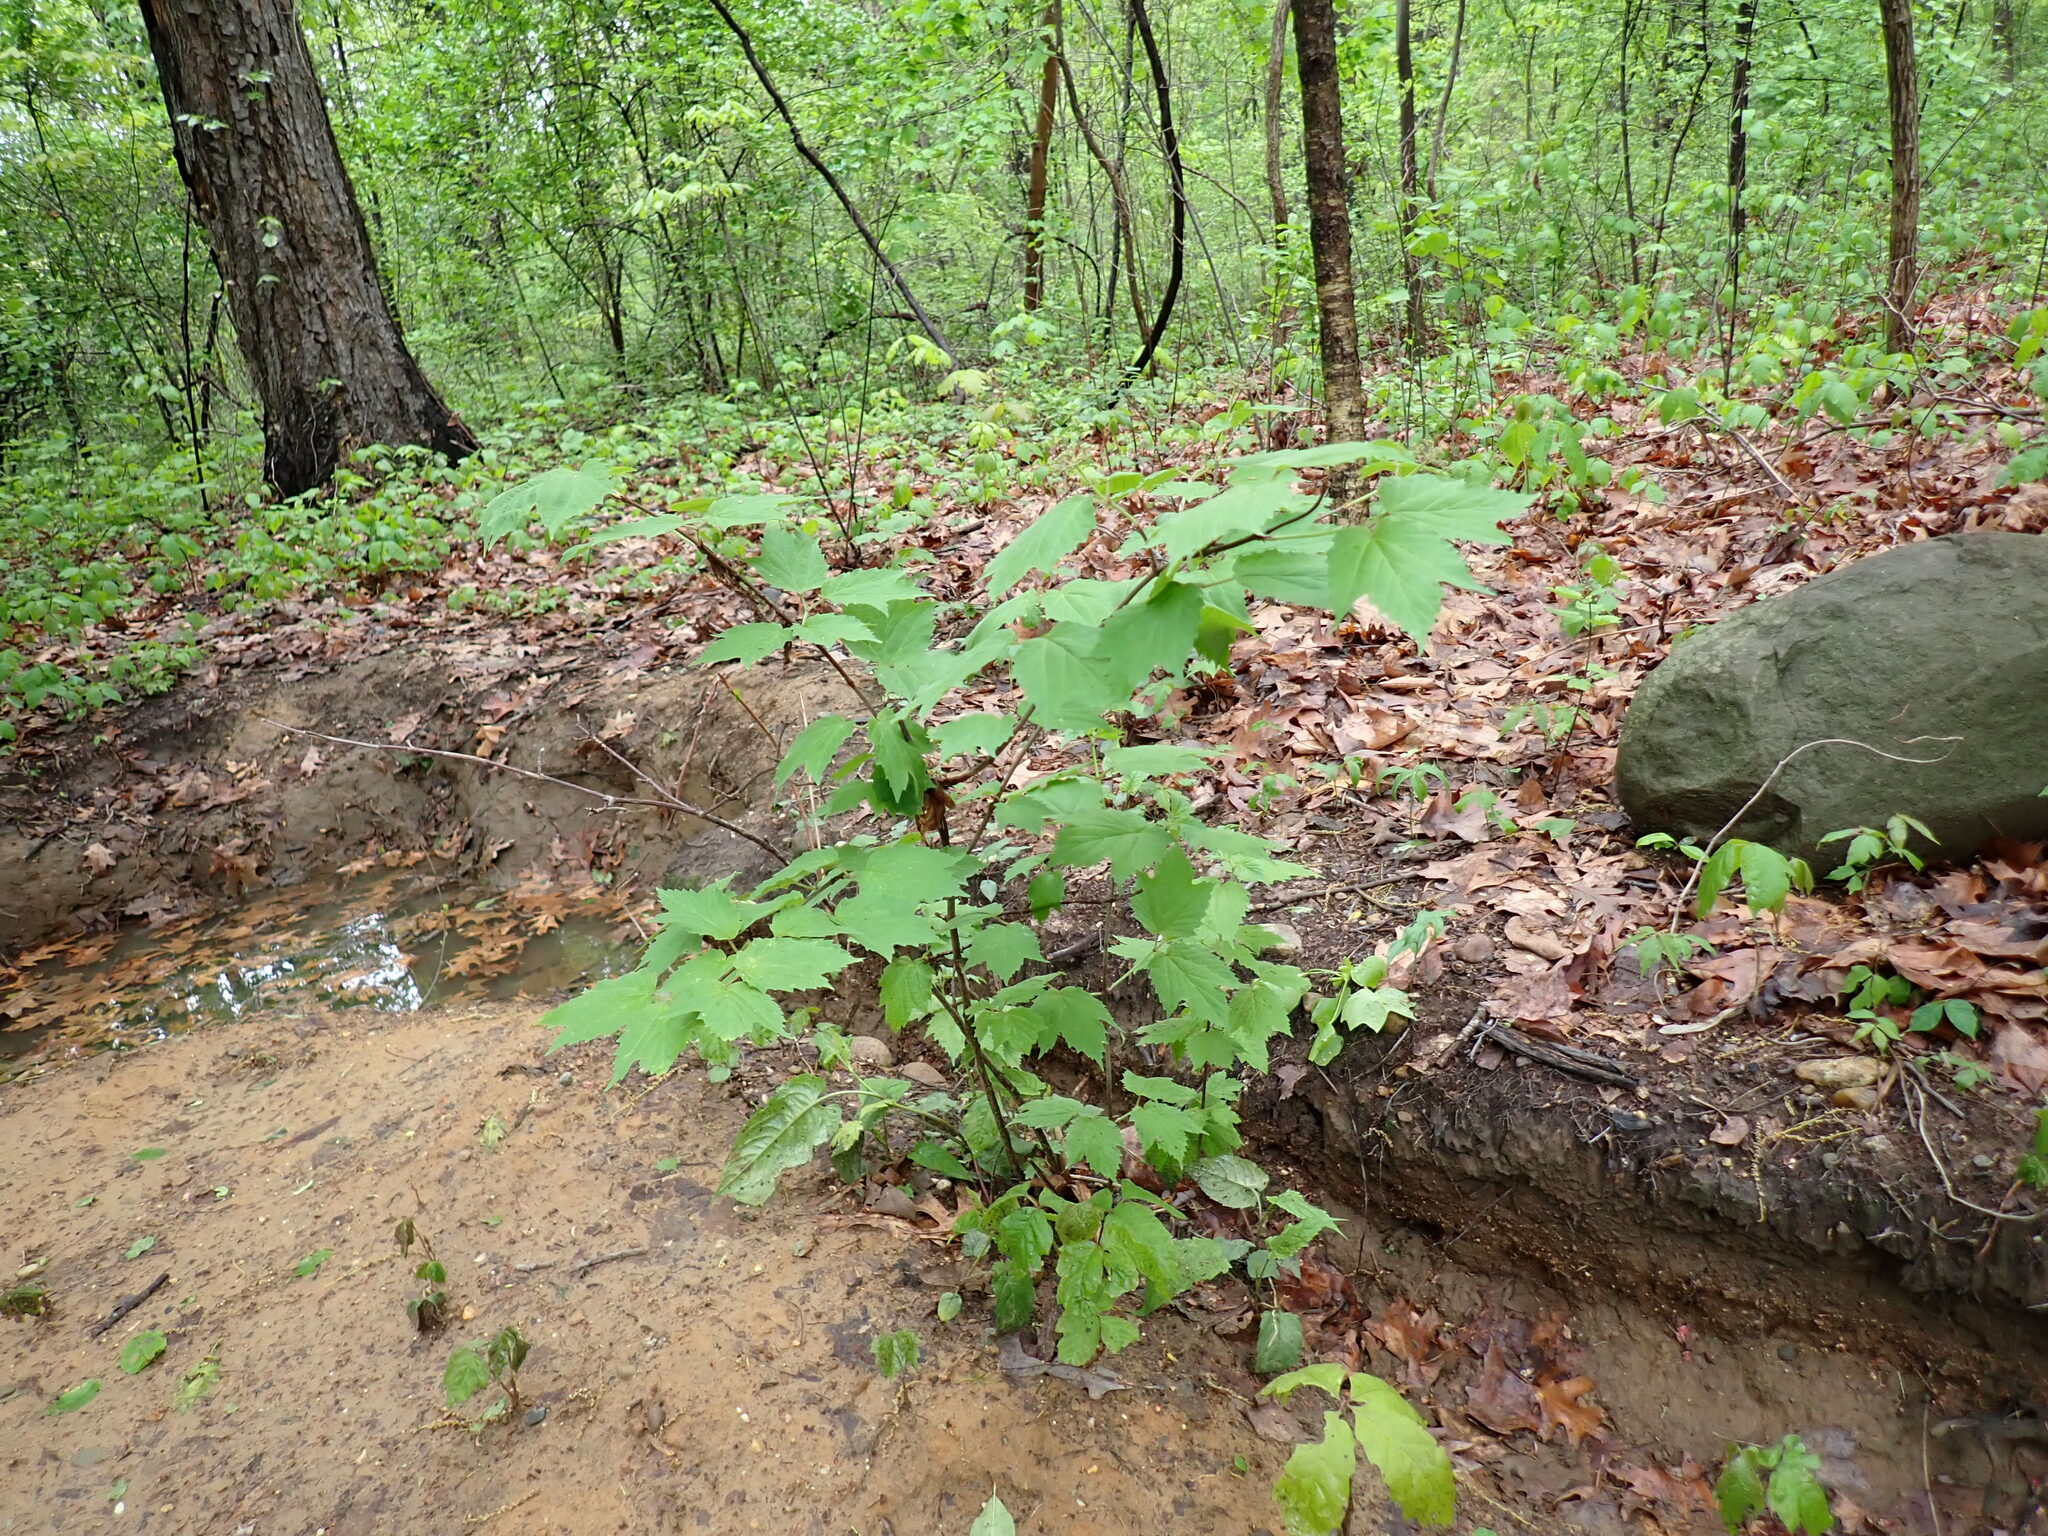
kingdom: Plantae
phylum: Tracheophyta
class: Magnoliopsida
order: Dipsacales
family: Viburnaceae
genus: Viburnum
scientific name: Viburnum acerifolium
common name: Dockmackie
